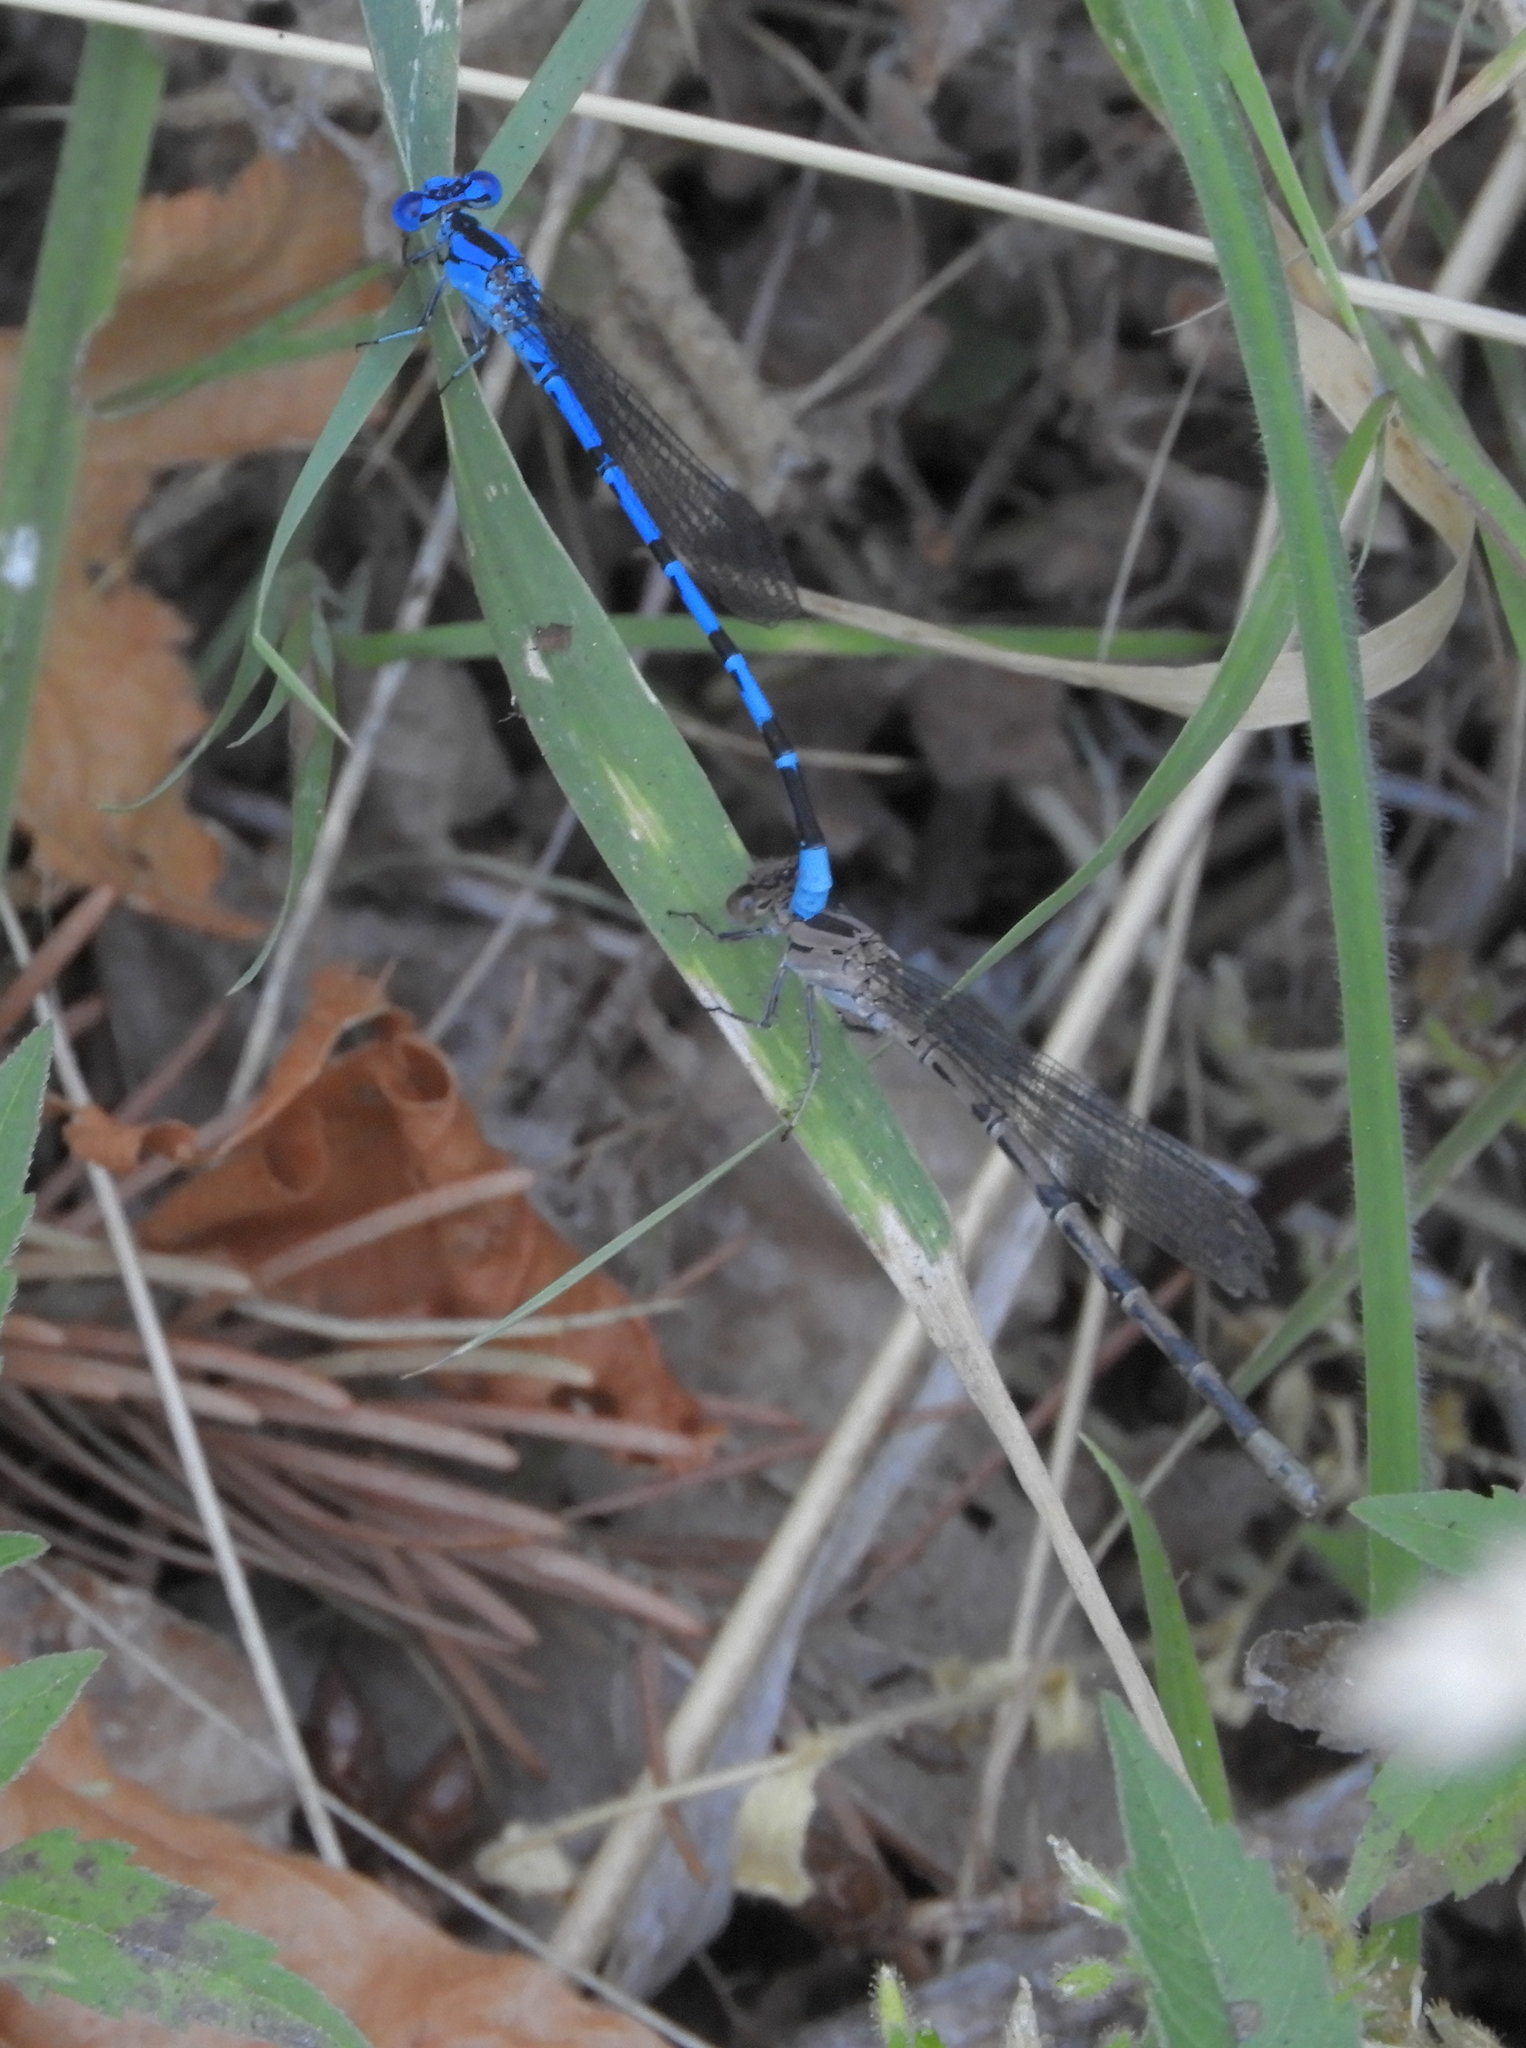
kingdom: Animalia
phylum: Arthropoda
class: Insecta
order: Odonata
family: Coenagrionidae
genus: Argia
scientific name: Argia vivida
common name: Vivid dancer
